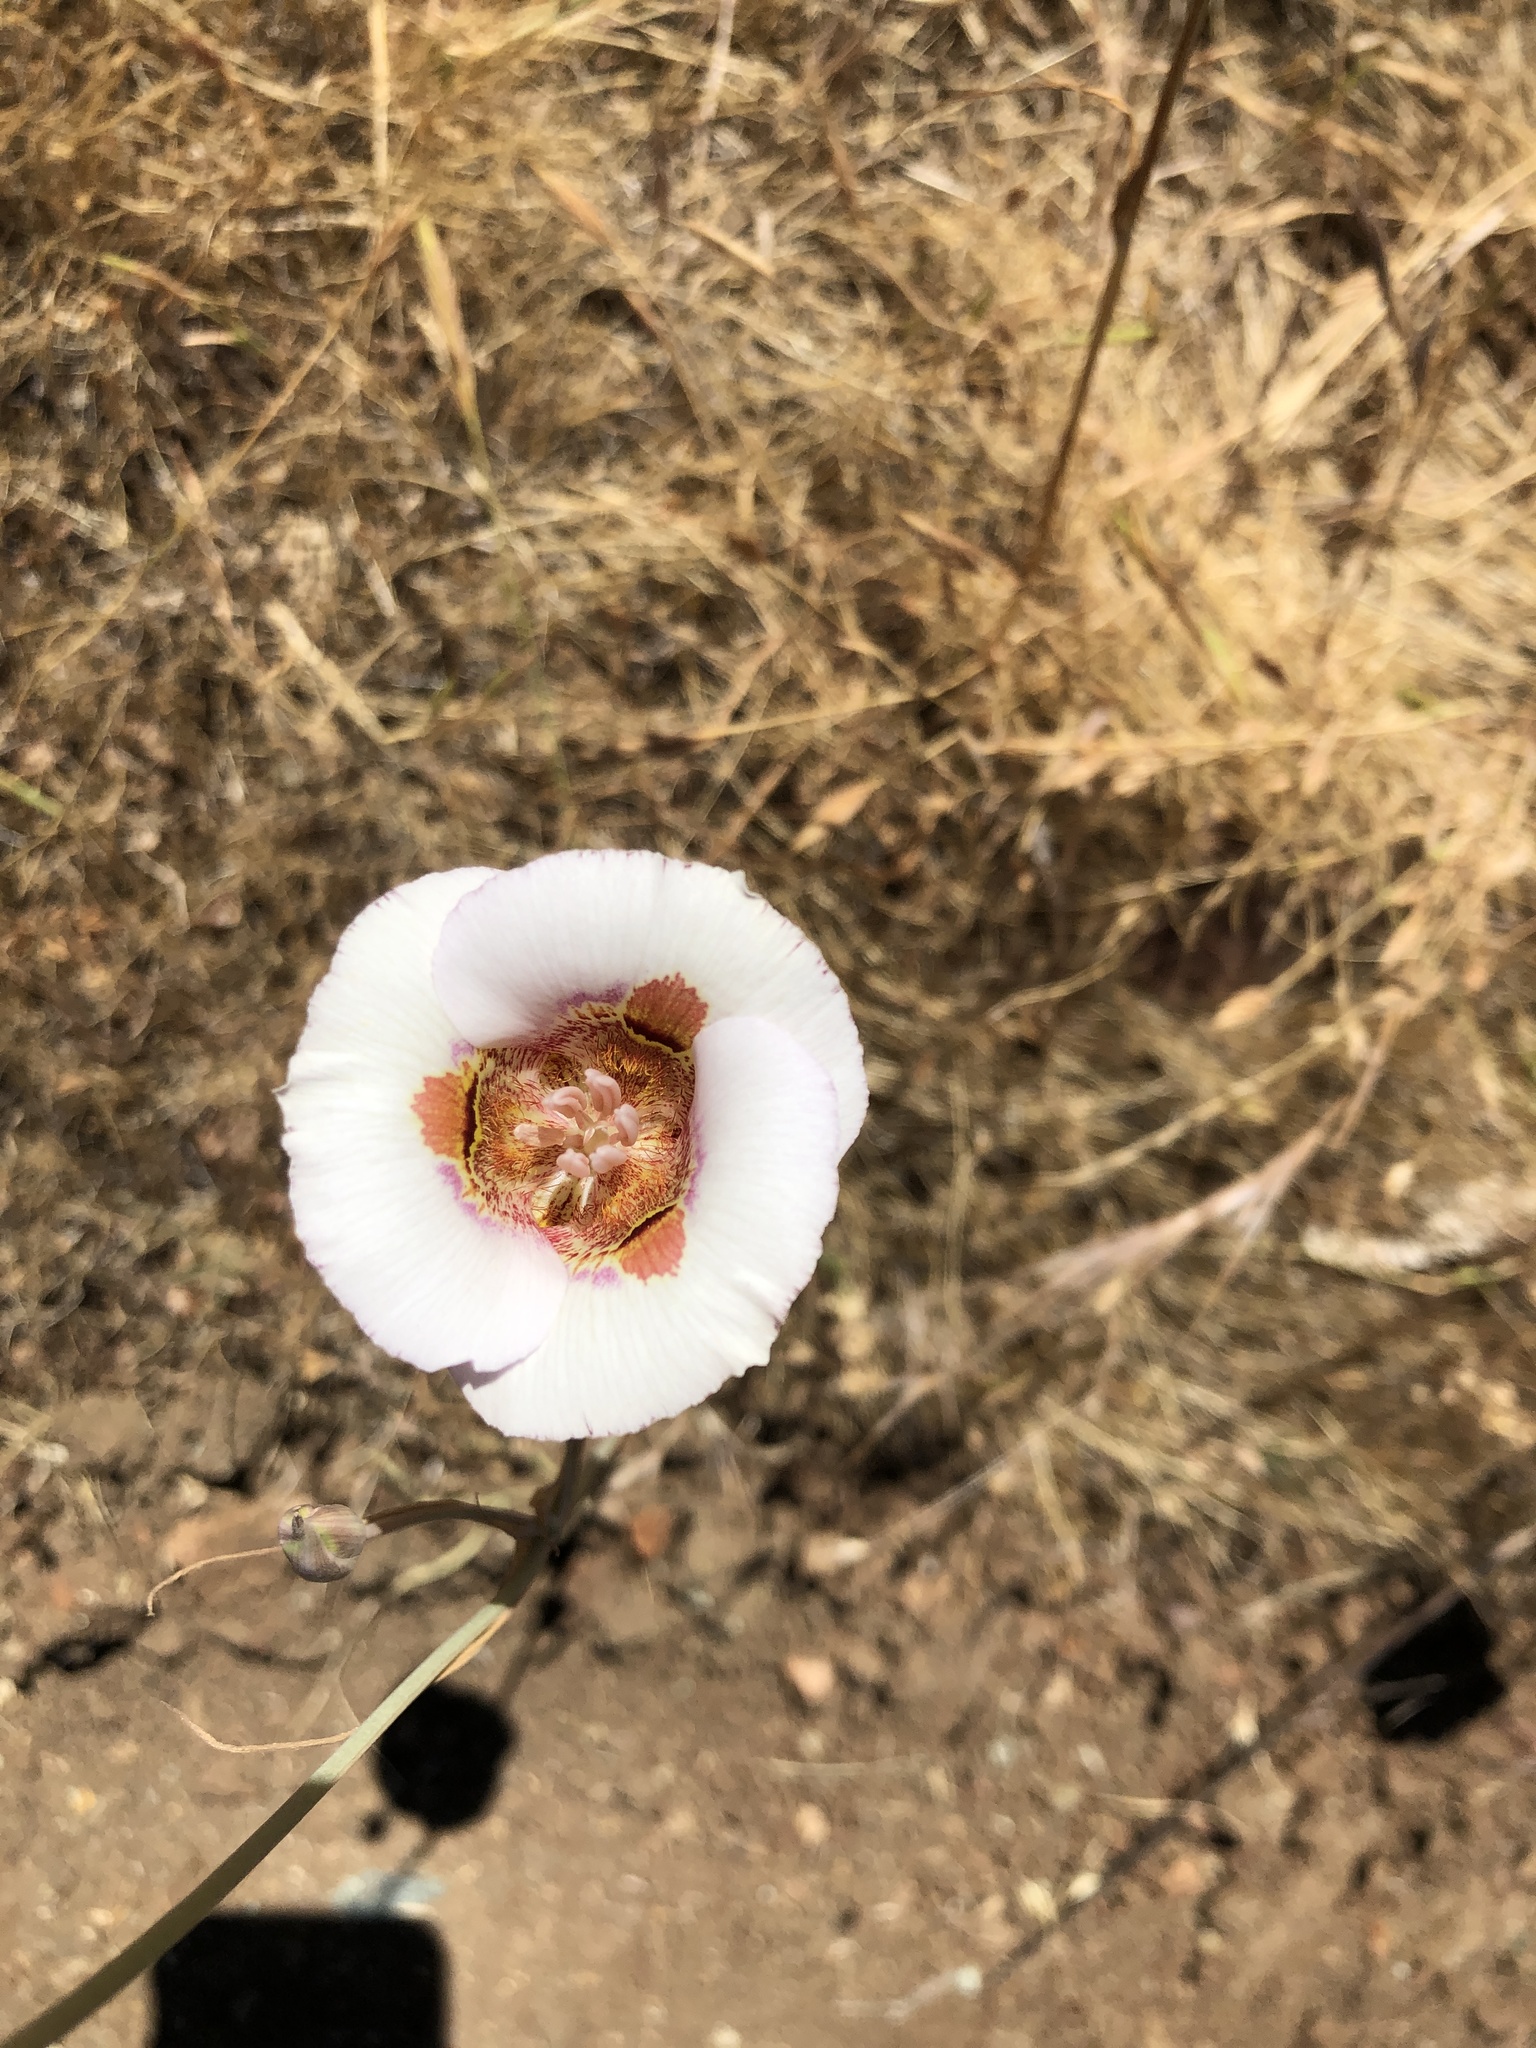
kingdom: Plantae
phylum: Tracheophyta
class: Liliopsida
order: Liliales
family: Liliaceae
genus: Calochortus
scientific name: Calochortus argillosus
